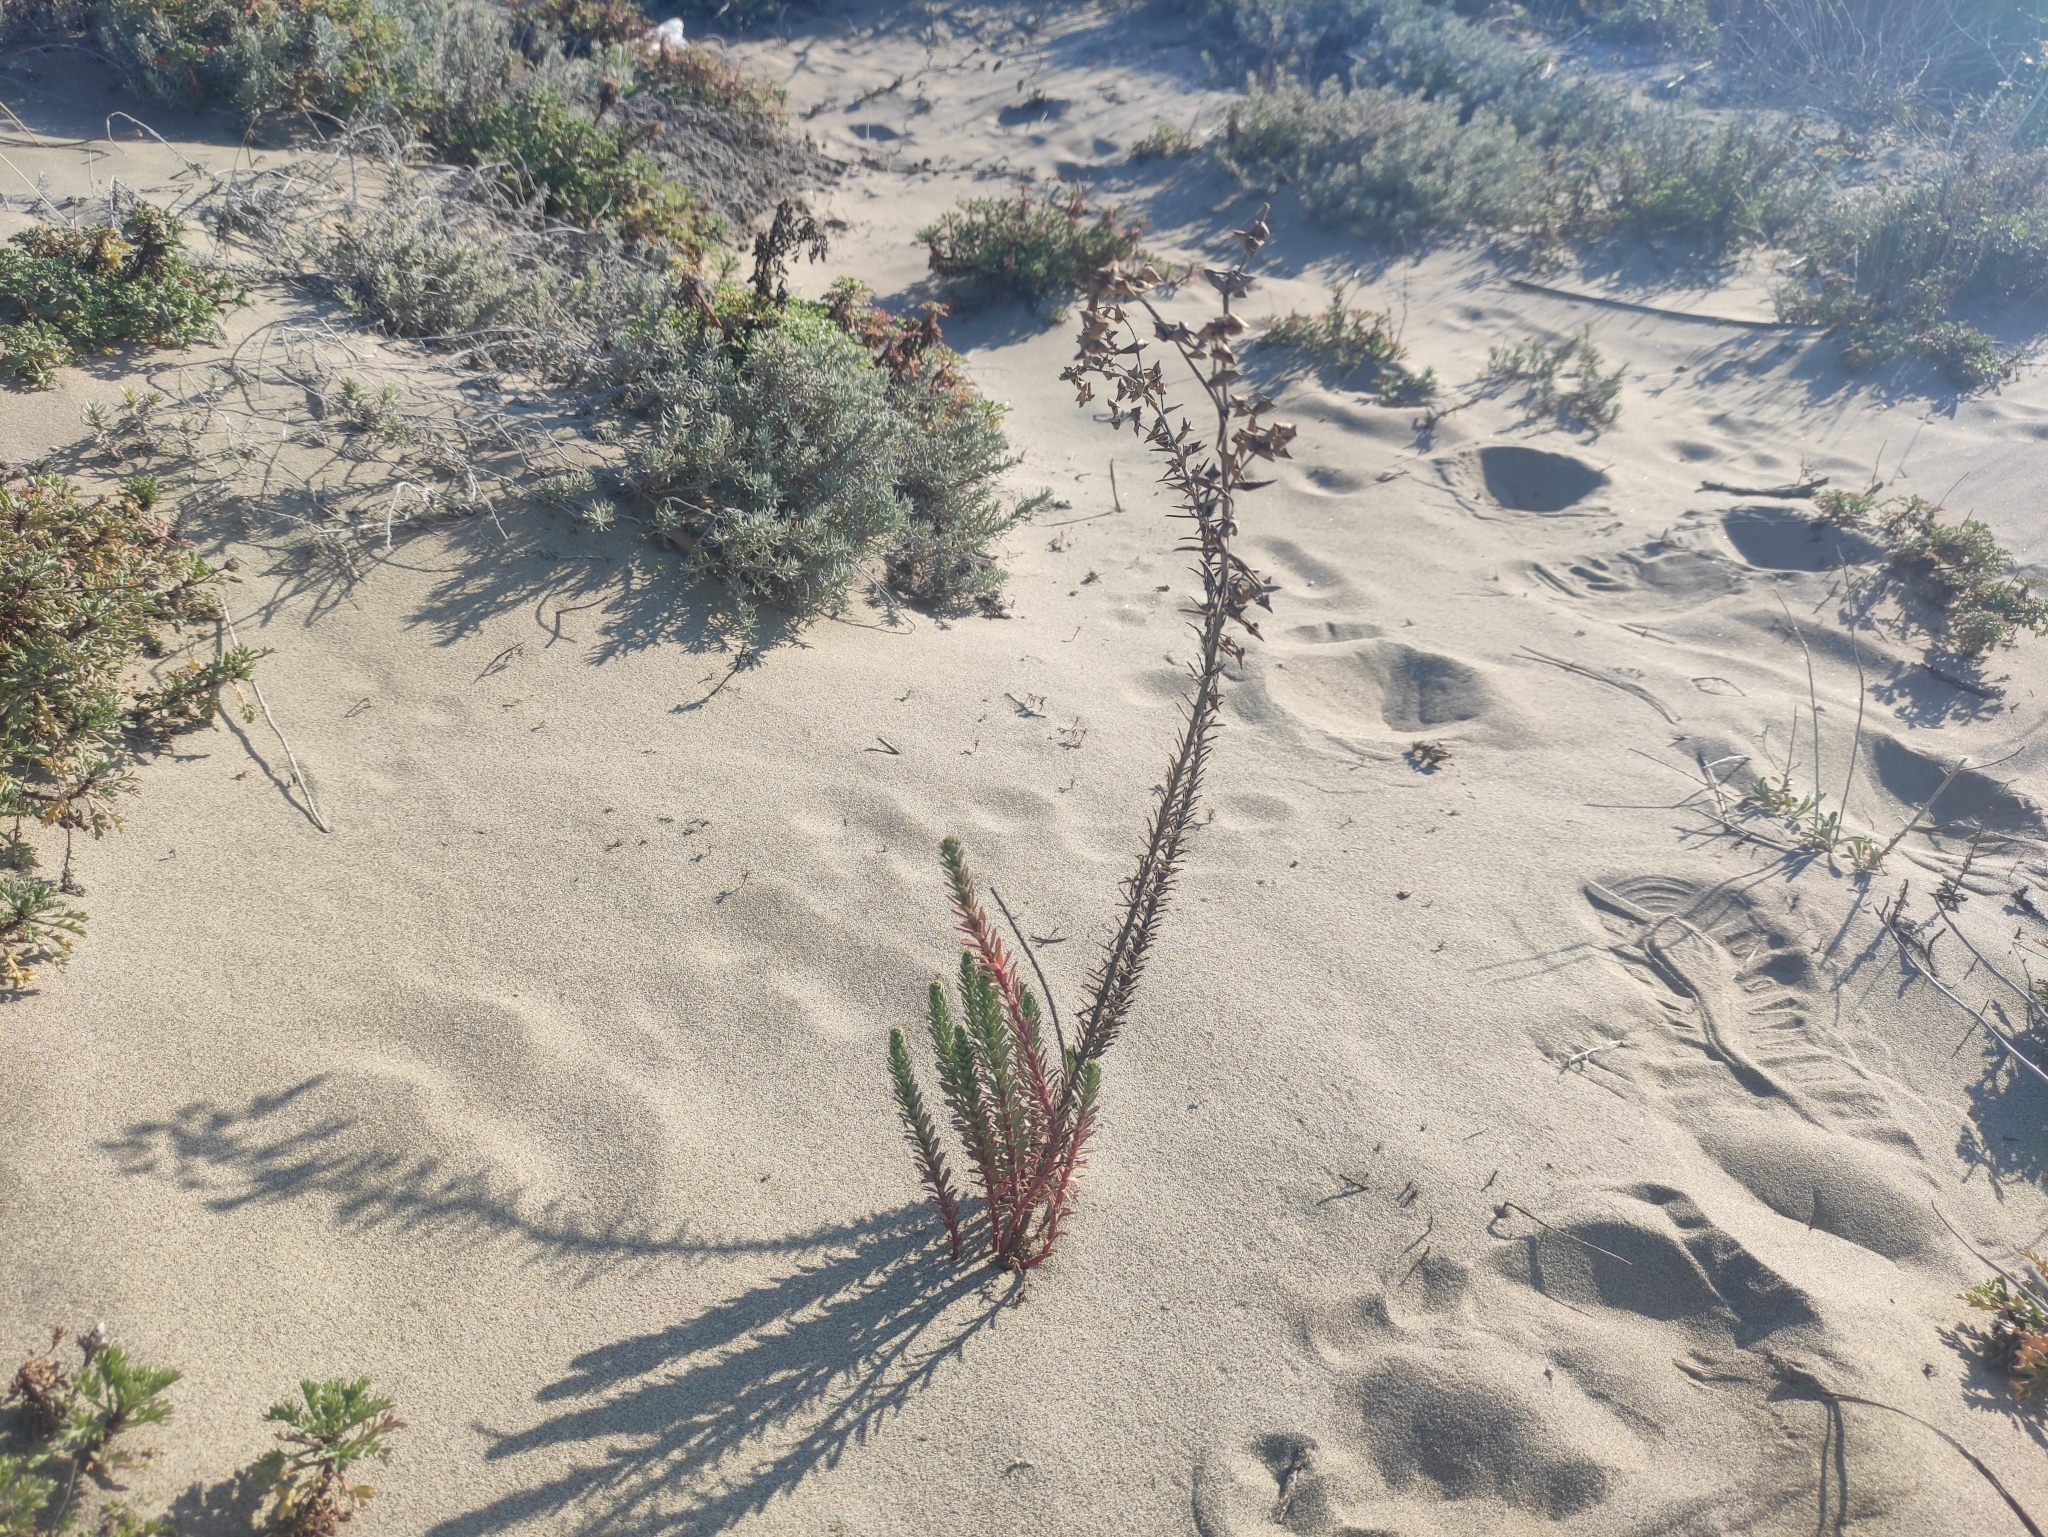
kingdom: Plantae
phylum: Tracheophyta
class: Magnoliopsida
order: Malpighiales
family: Euphorbiaceae
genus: Euphorbia
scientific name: Euphorbia paralias
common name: Sea spurge
